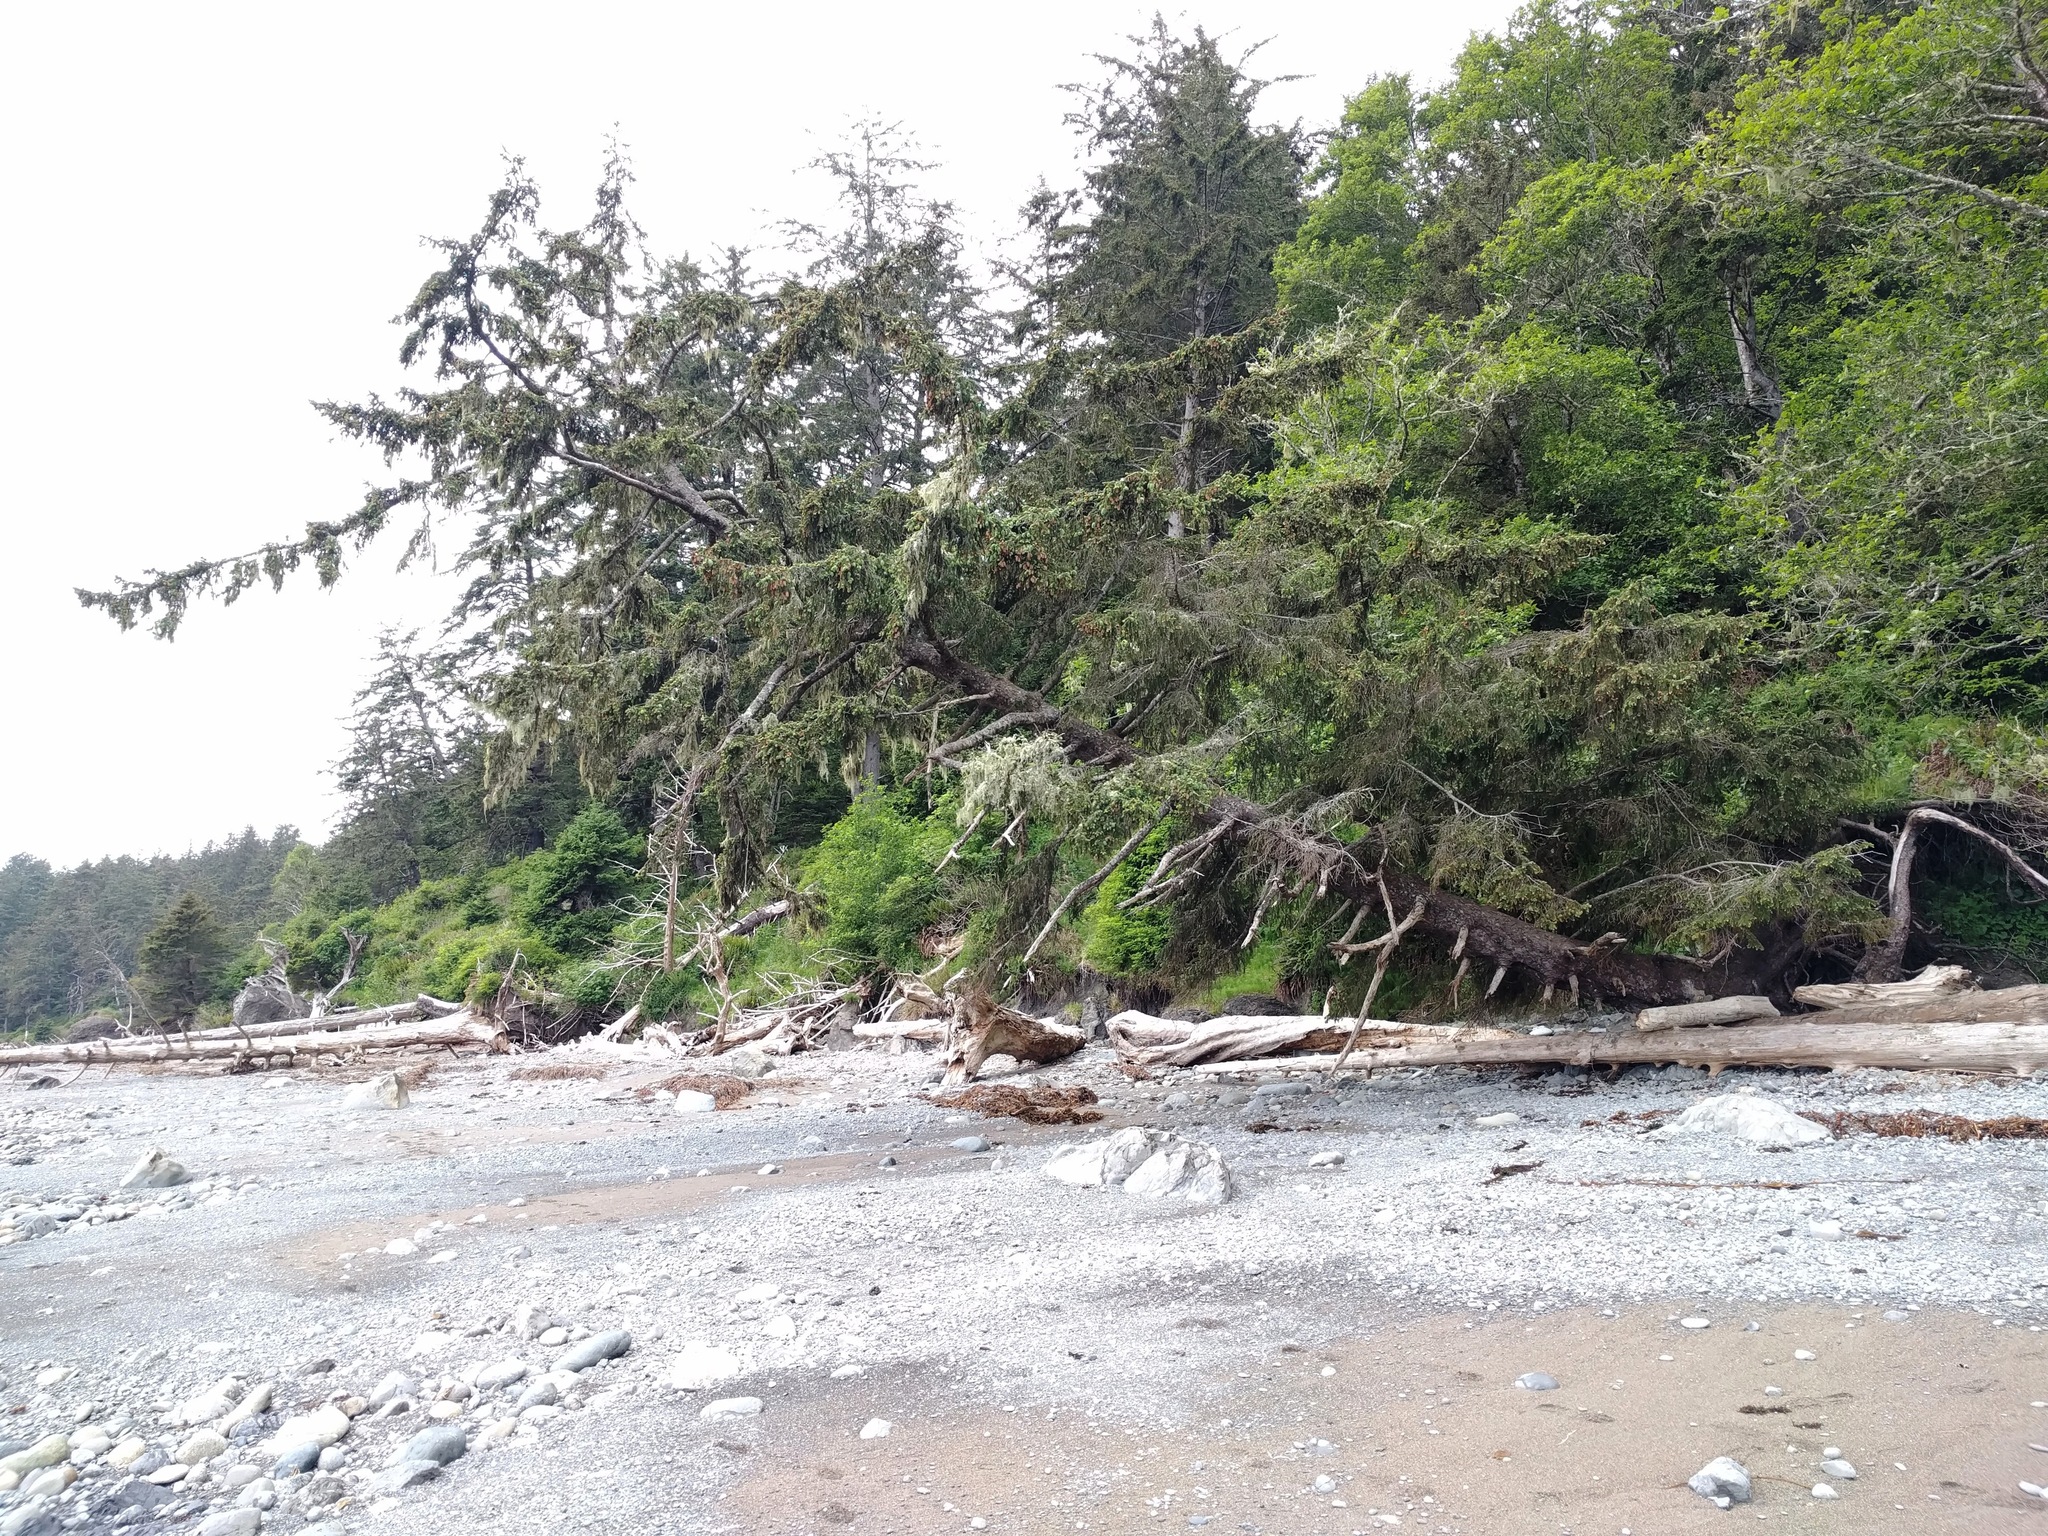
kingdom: Plantae
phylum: Tracheophyta
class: Pinopsida
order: Pinales
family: Pinaceae
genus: Picea
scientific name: Picea sitchensis
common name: Sitka spruce
